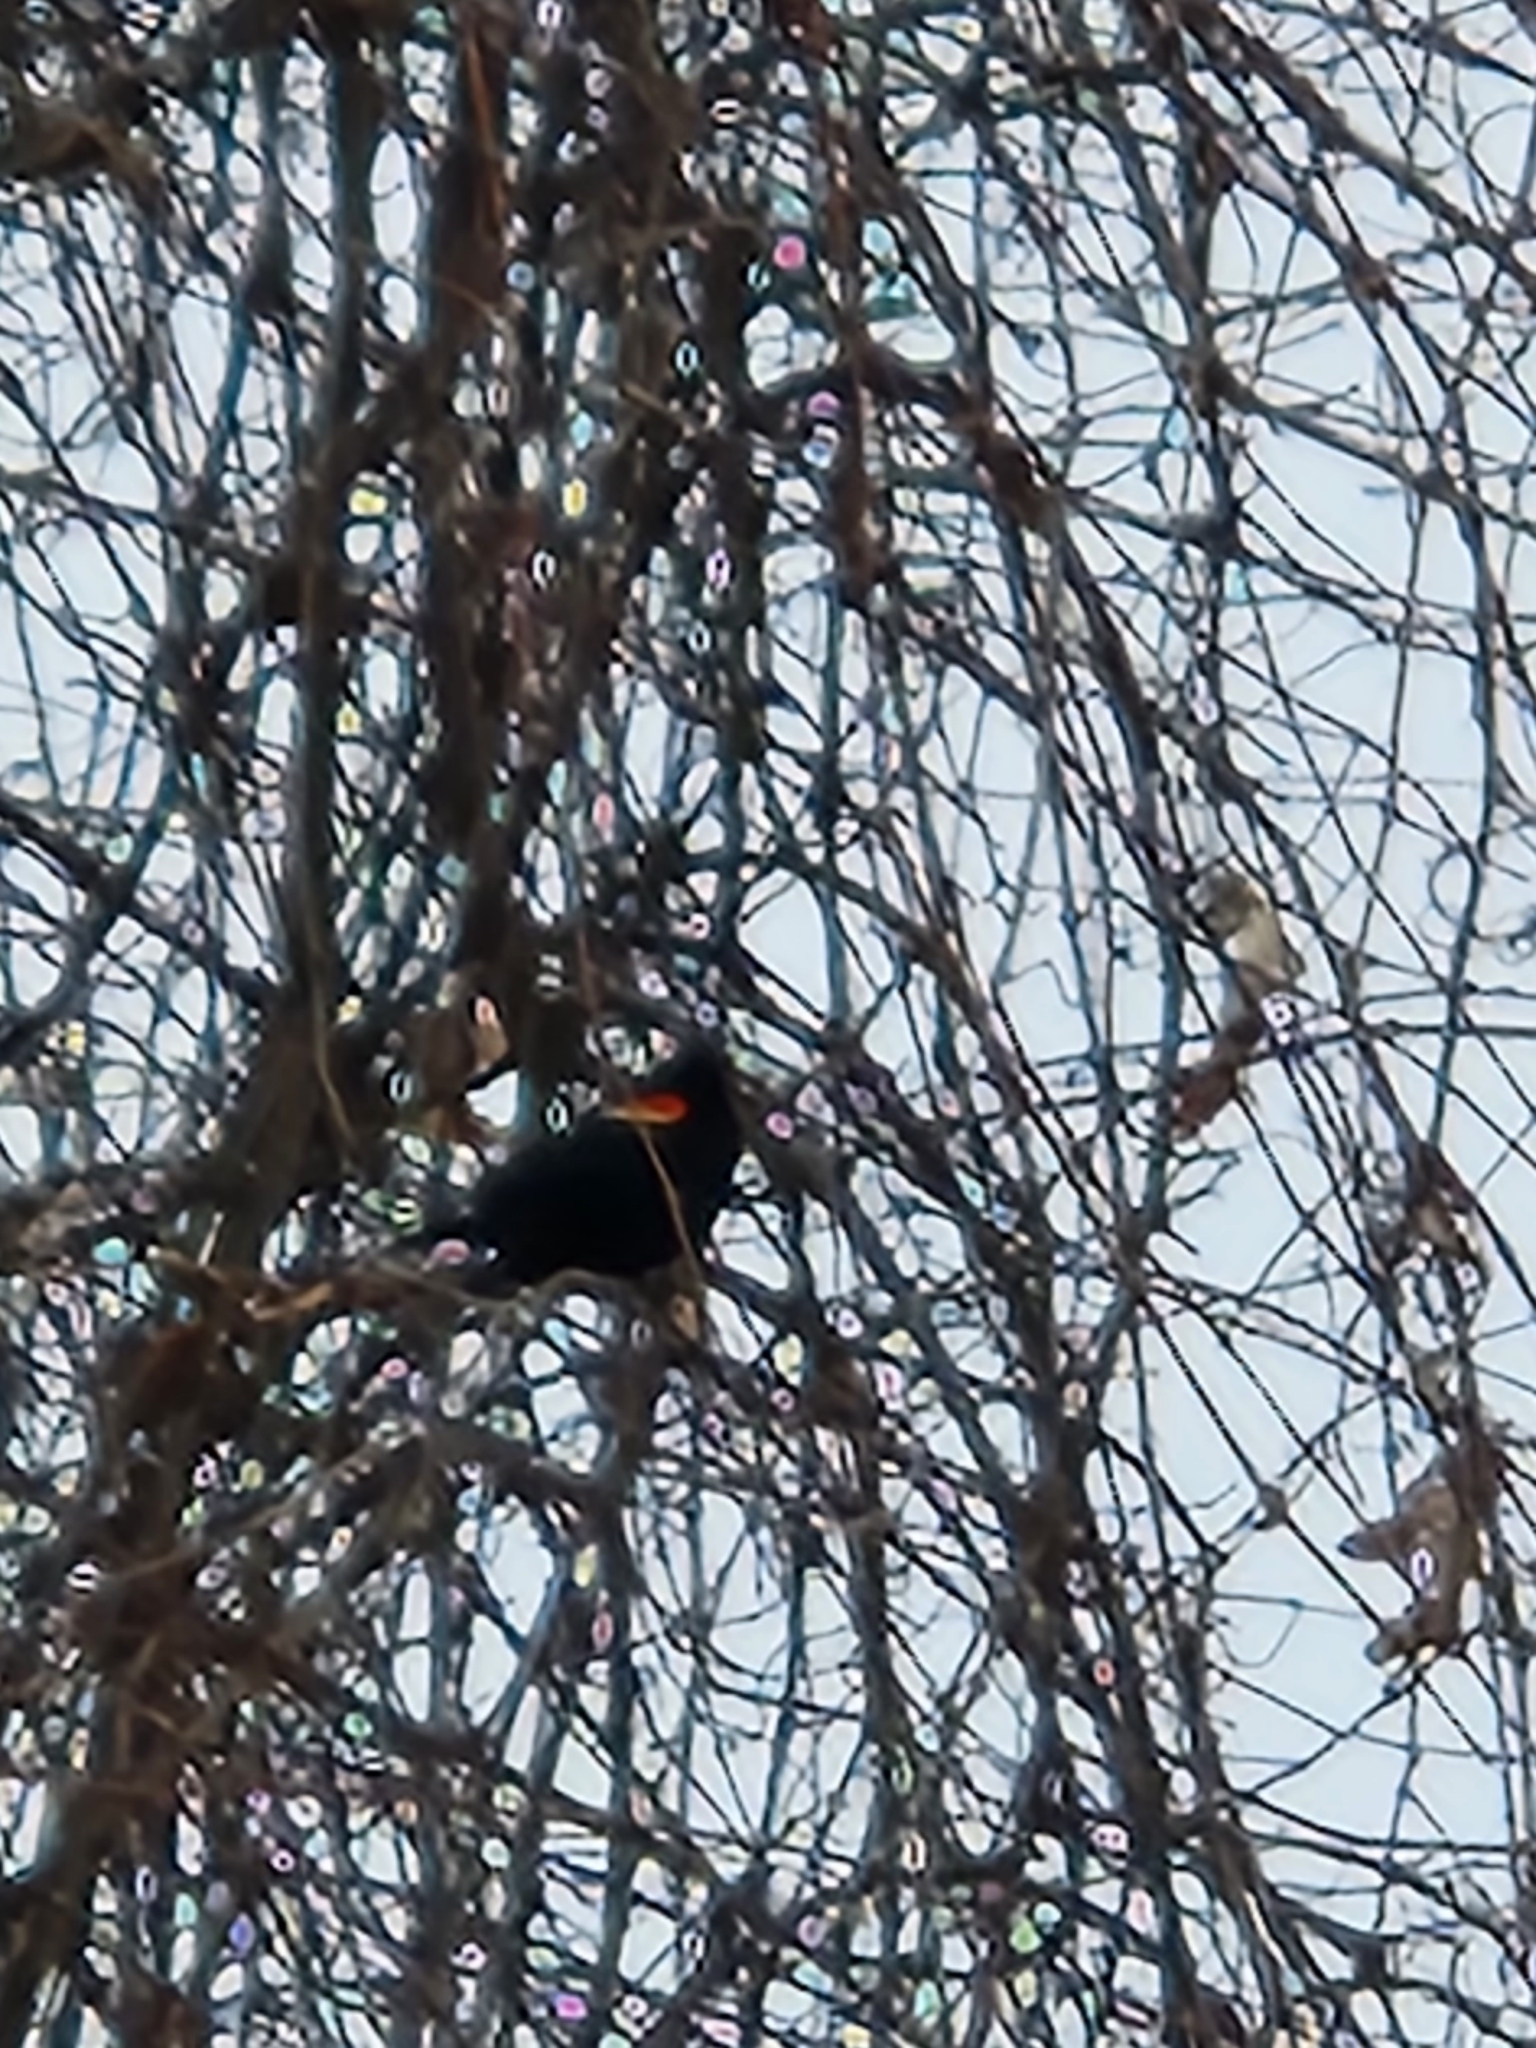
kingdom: Animalia
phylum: Chordata
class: Aves
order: Passeriformes
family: Icteridae
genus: Agelaius
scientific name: Agelaius phoeniceus
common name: Red-winged blackbird
